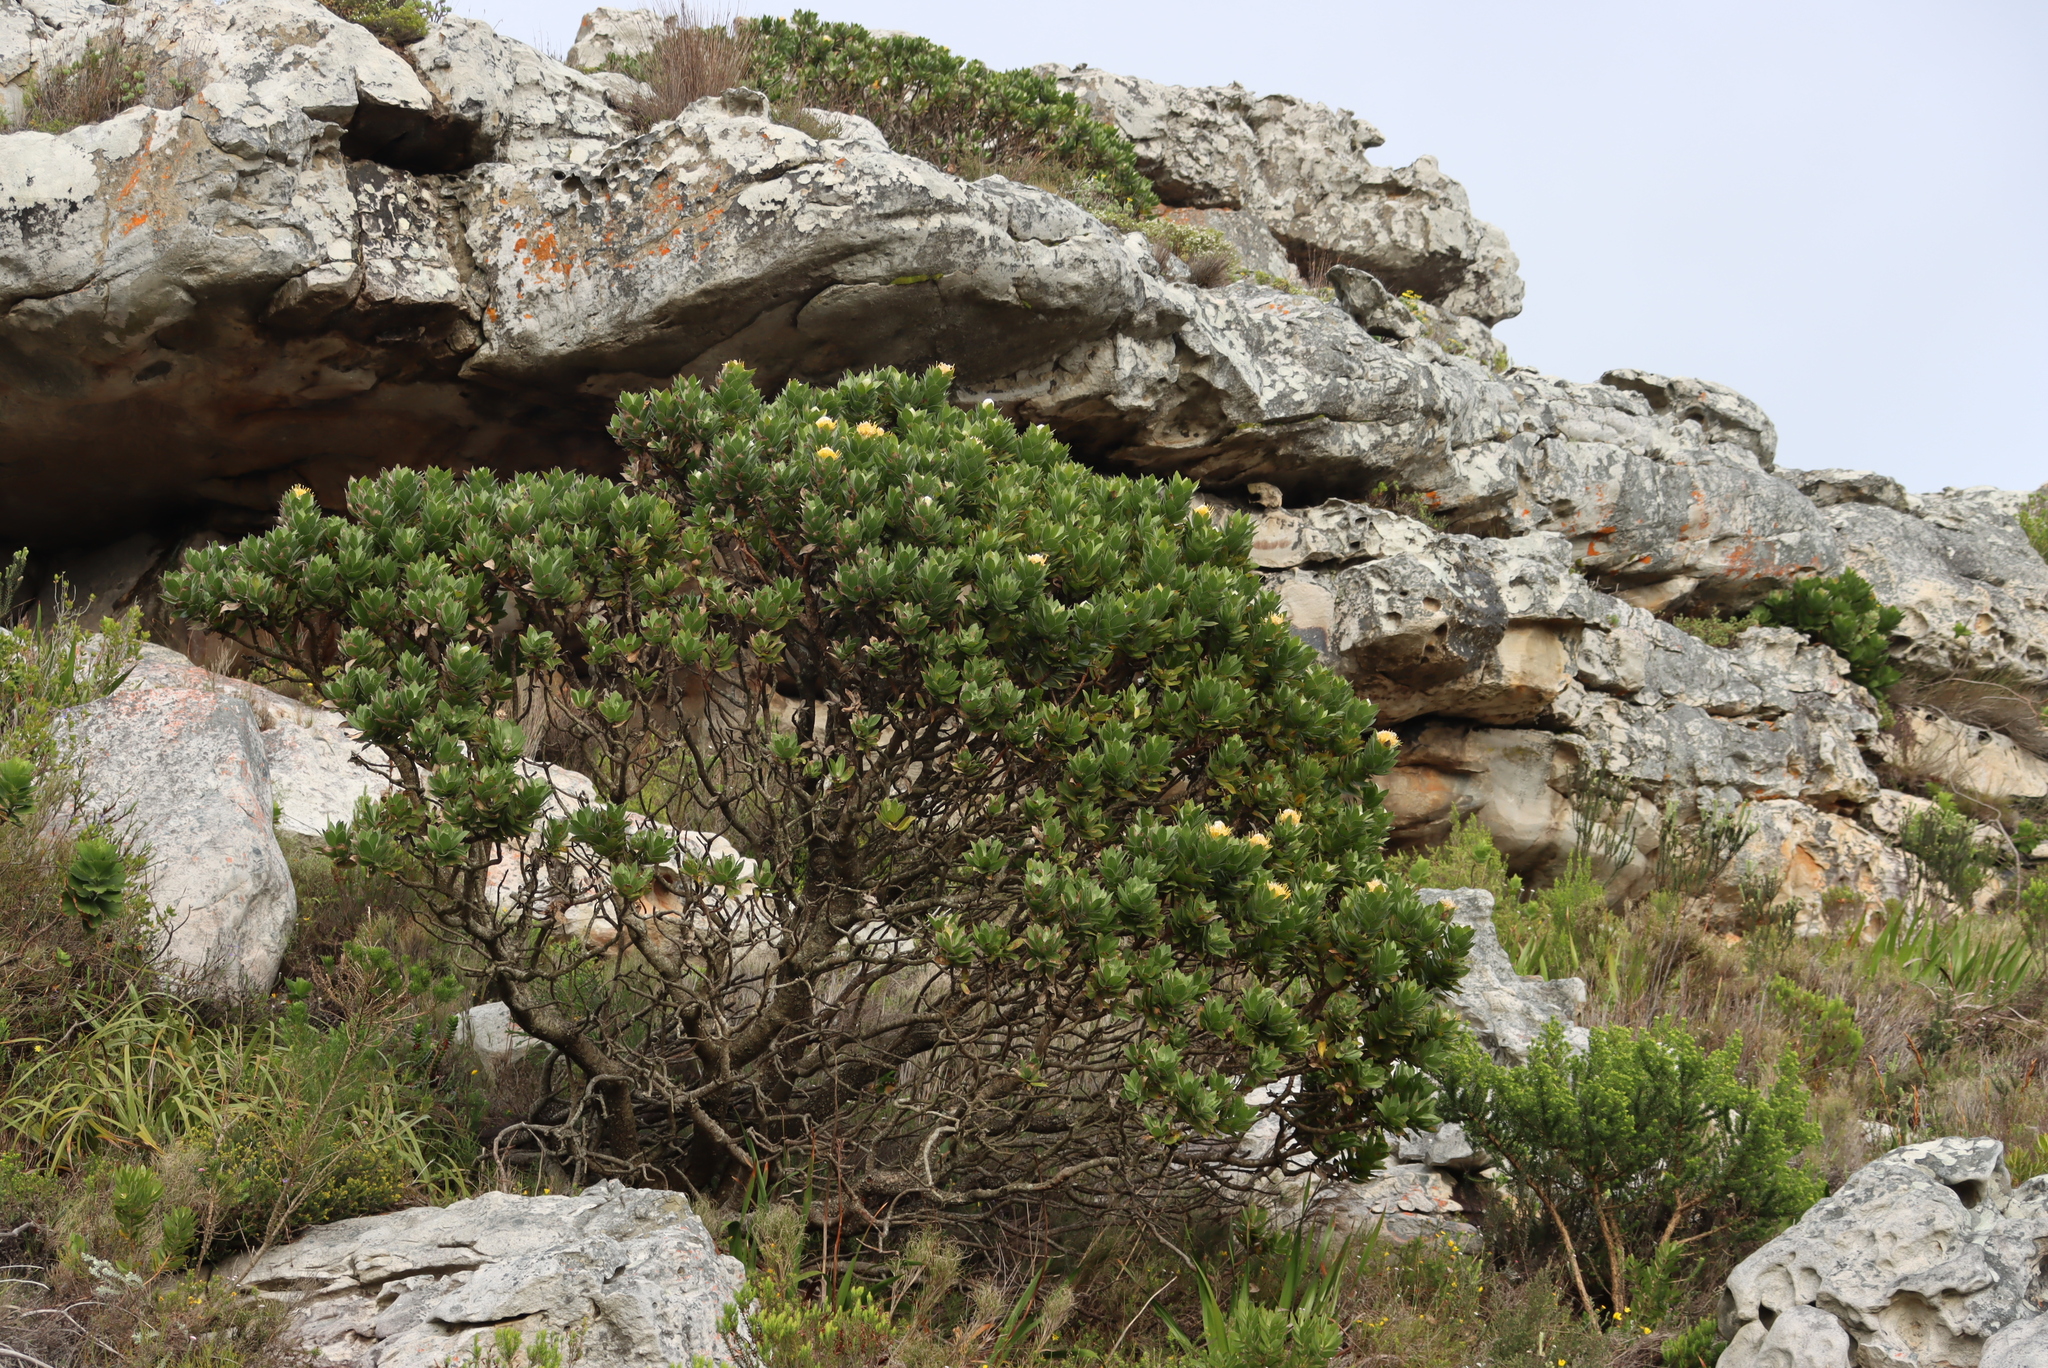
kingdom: Plantae
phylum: Tracheophyta
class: Magnoliopsida
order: Proteales
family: Proteaceae
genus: Leucospermum
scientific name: Leucospermum conocarpodendron
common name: Tree pincushion
